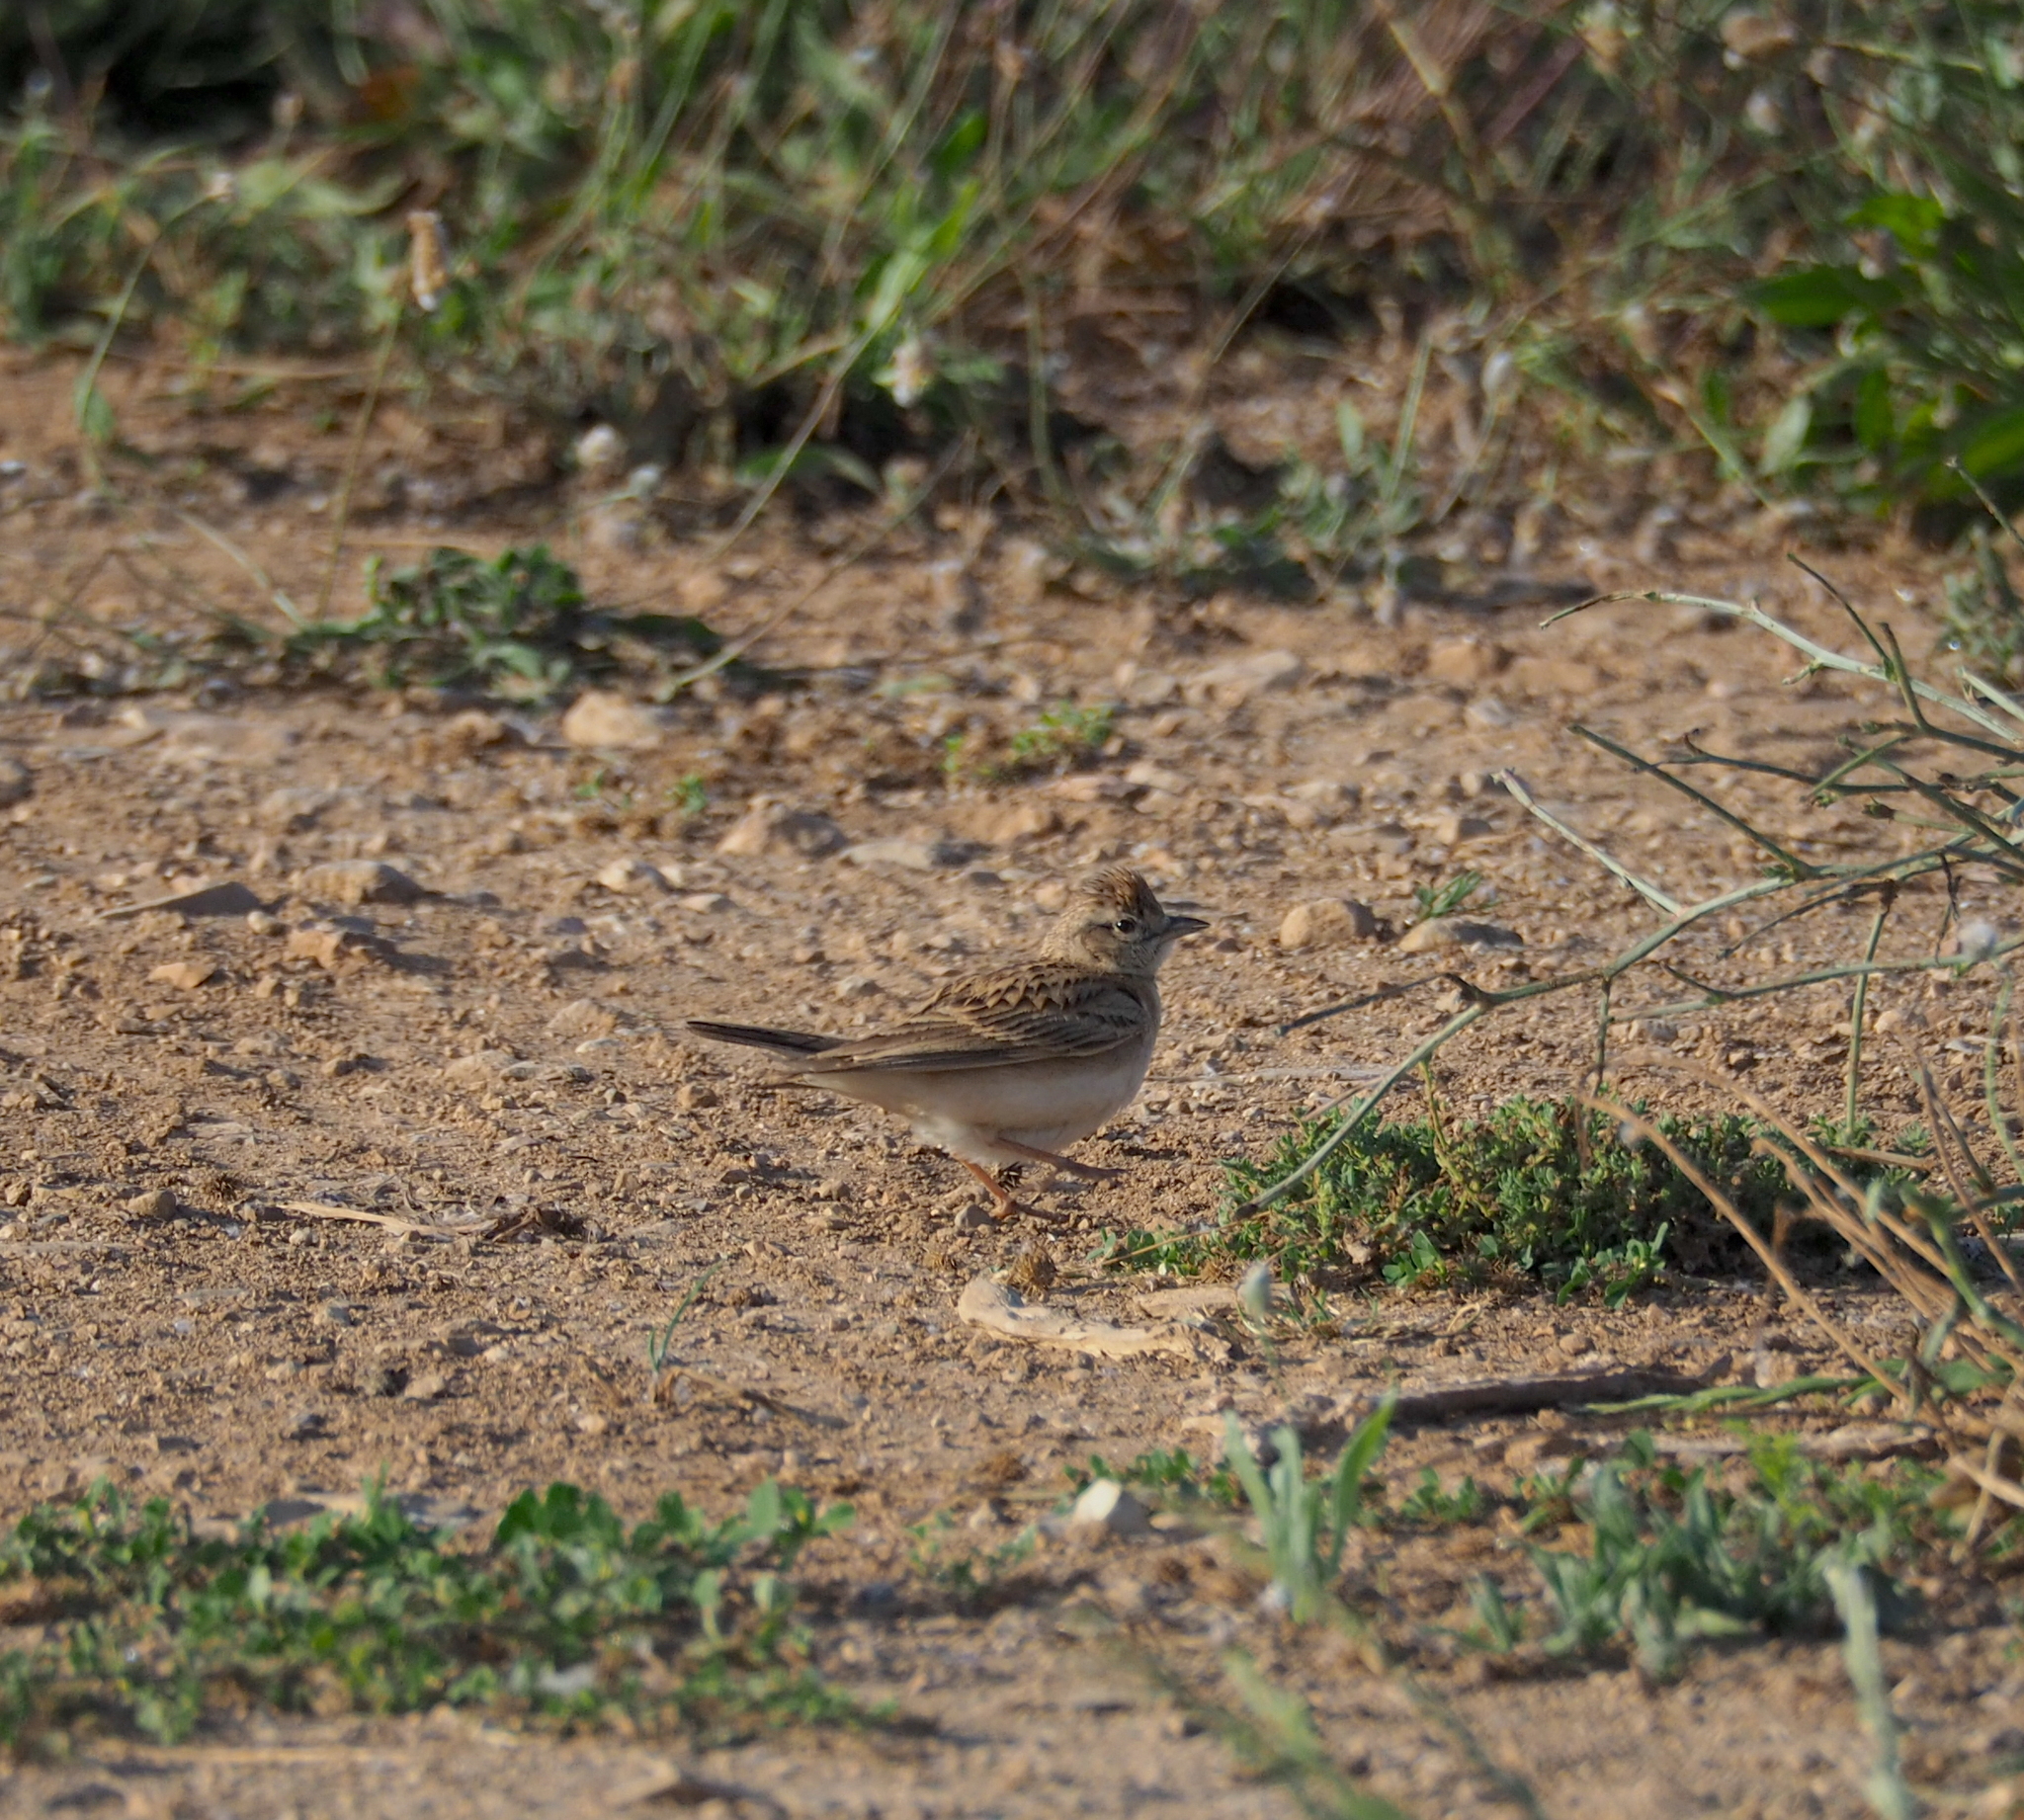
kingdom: Animalia
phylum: Chordata
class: Aves
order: Passeriformes
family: Alaudidae
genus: Calandrella
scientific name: Calandrella brachydactyla
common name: Greater short-toed lark
